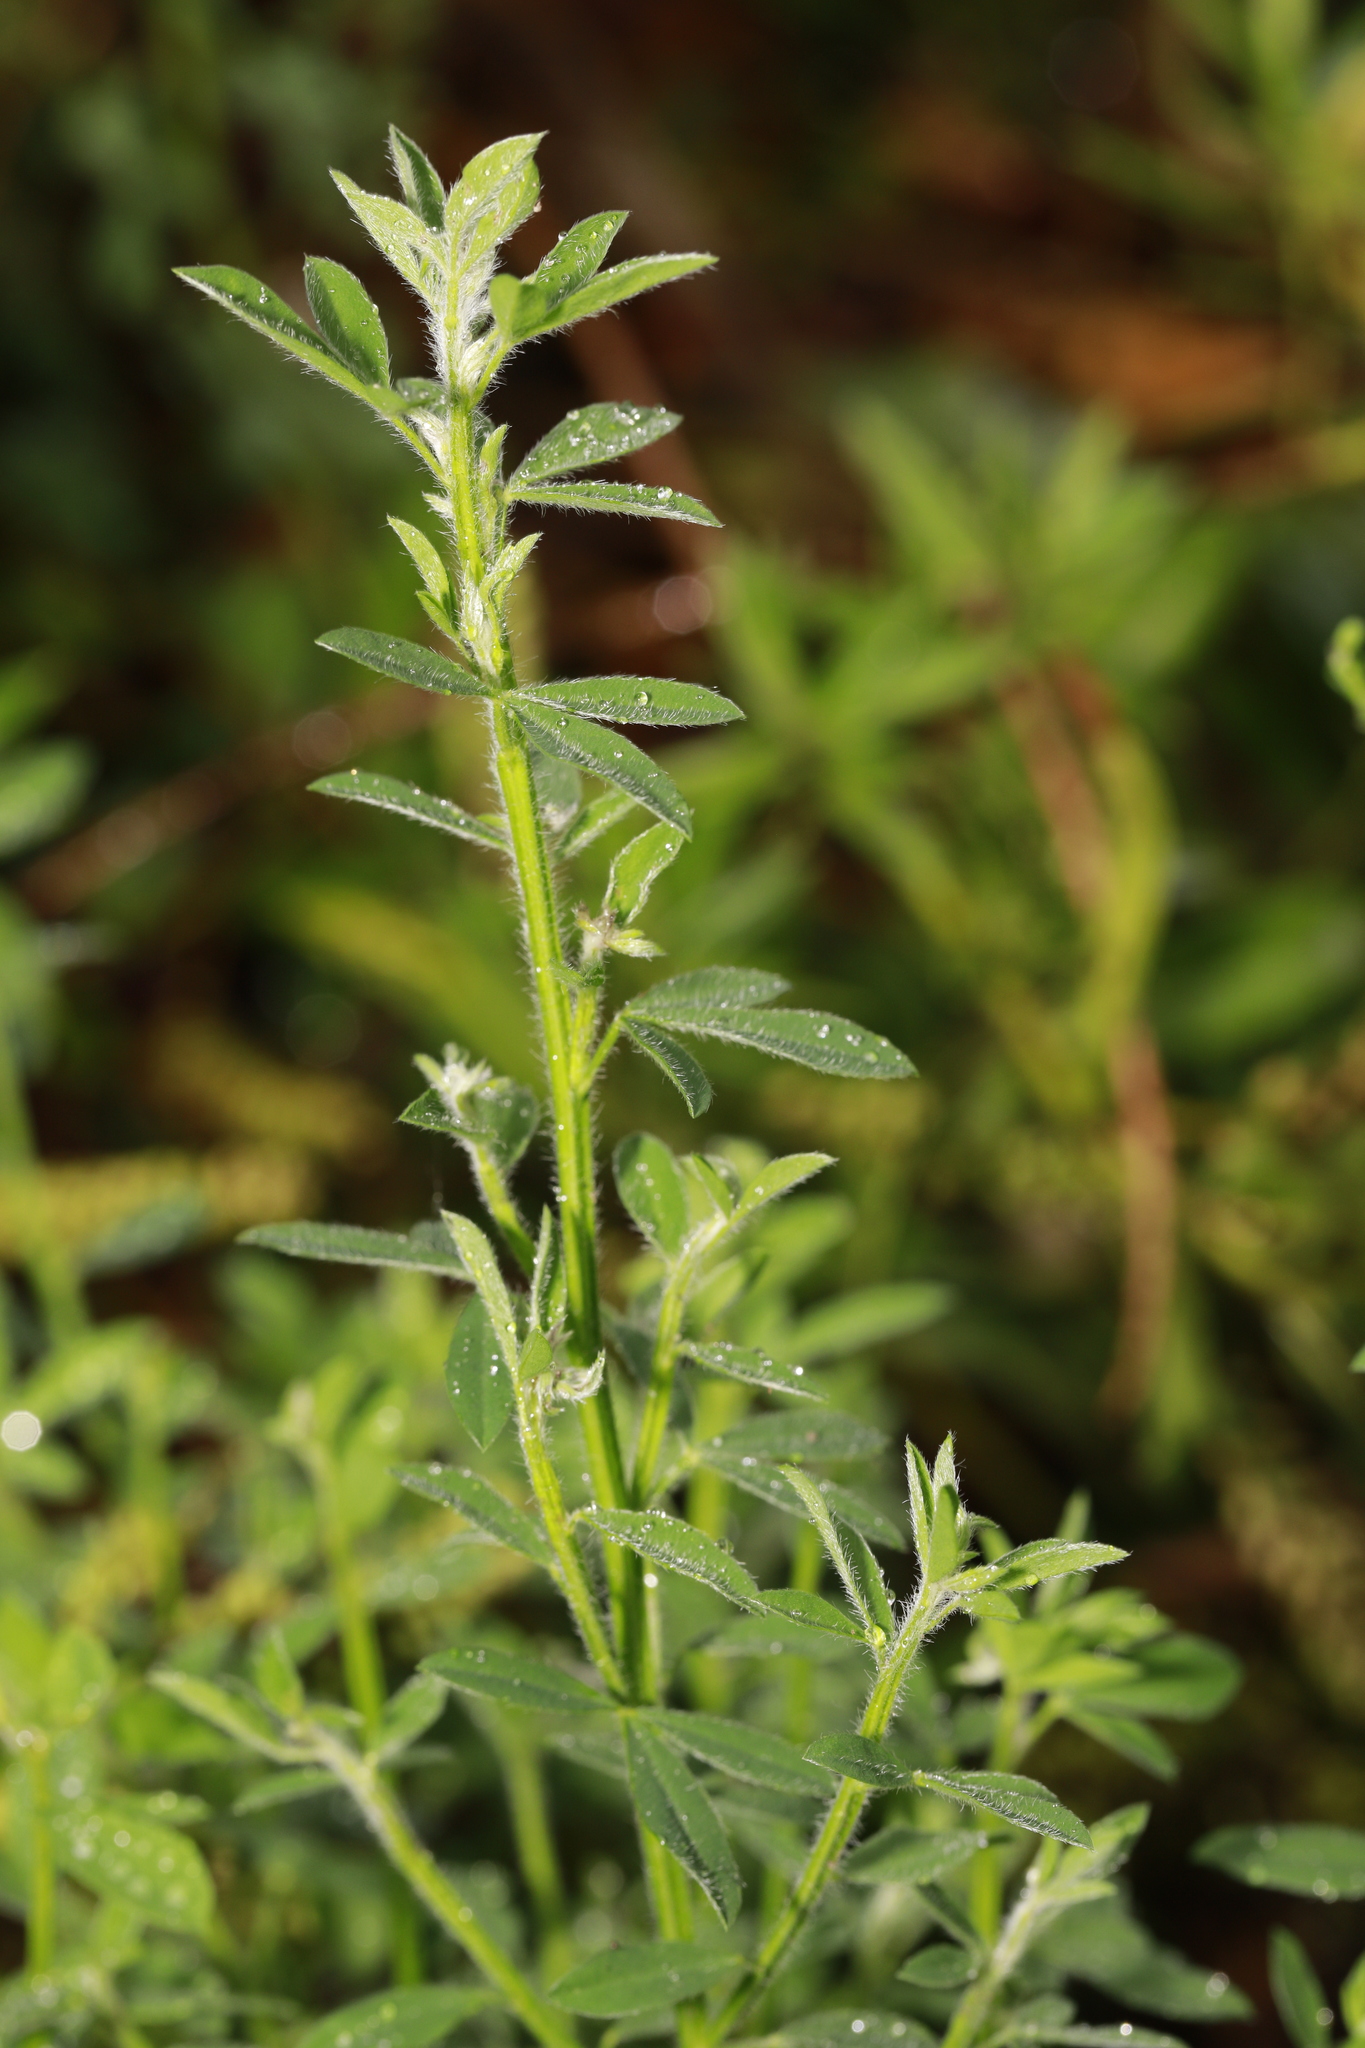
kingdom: Plantae
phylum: Tracheophyta
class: Magnoliopsida
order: Fabales
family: Fabaceae
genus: Cytisus
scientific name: Cytisus scoparius
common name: Scotch broom
